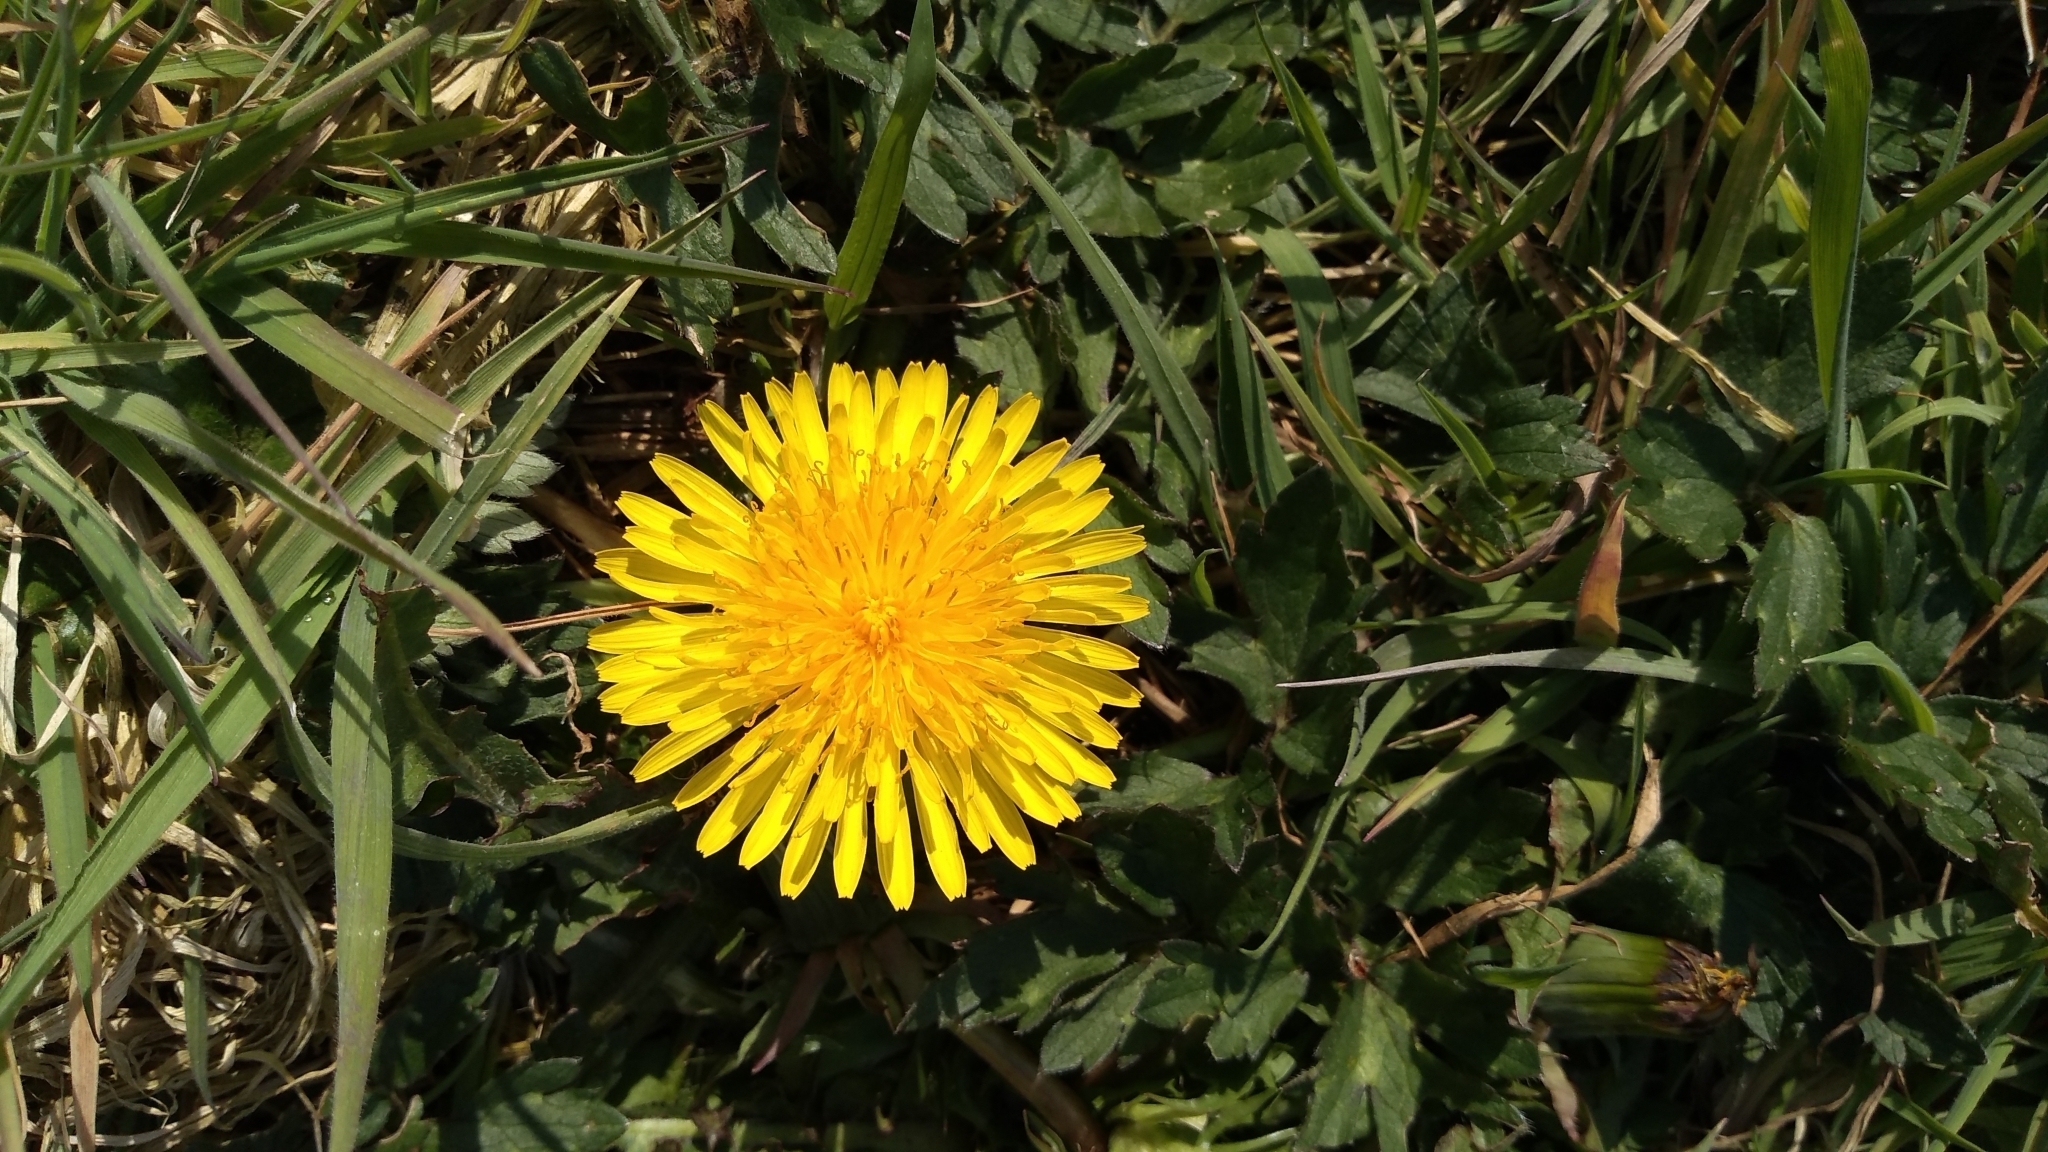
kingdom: Plantae
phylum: Tracheophyta
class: Magnoliopsida
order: Asterales
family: Asteraceae
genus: Taraxacum
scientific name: Taraxacum officinale
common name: Common dandelion
